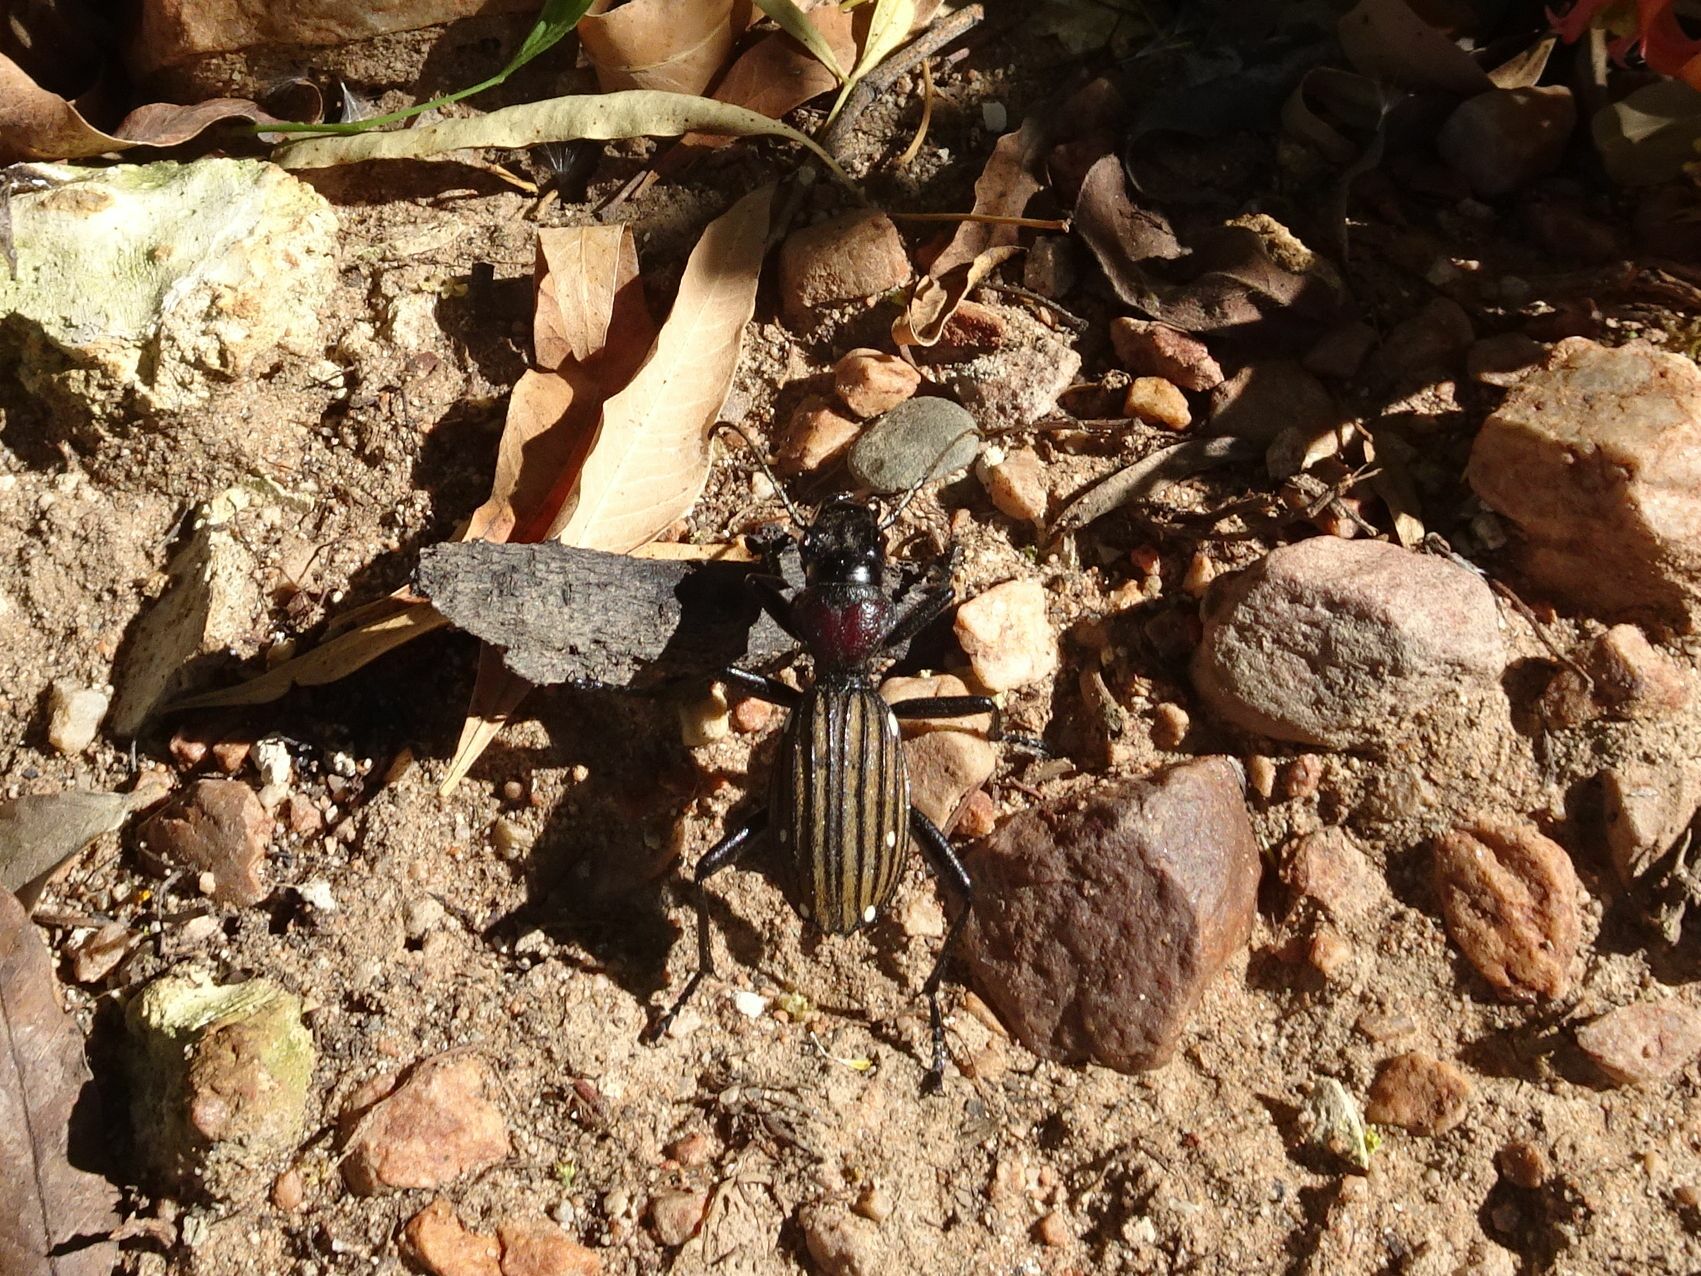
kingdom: Animalia
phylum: Arthropoda
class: Insecta
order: Coleoptera
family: Carabidae
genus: Anthia
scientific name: Anthia decemguttata
